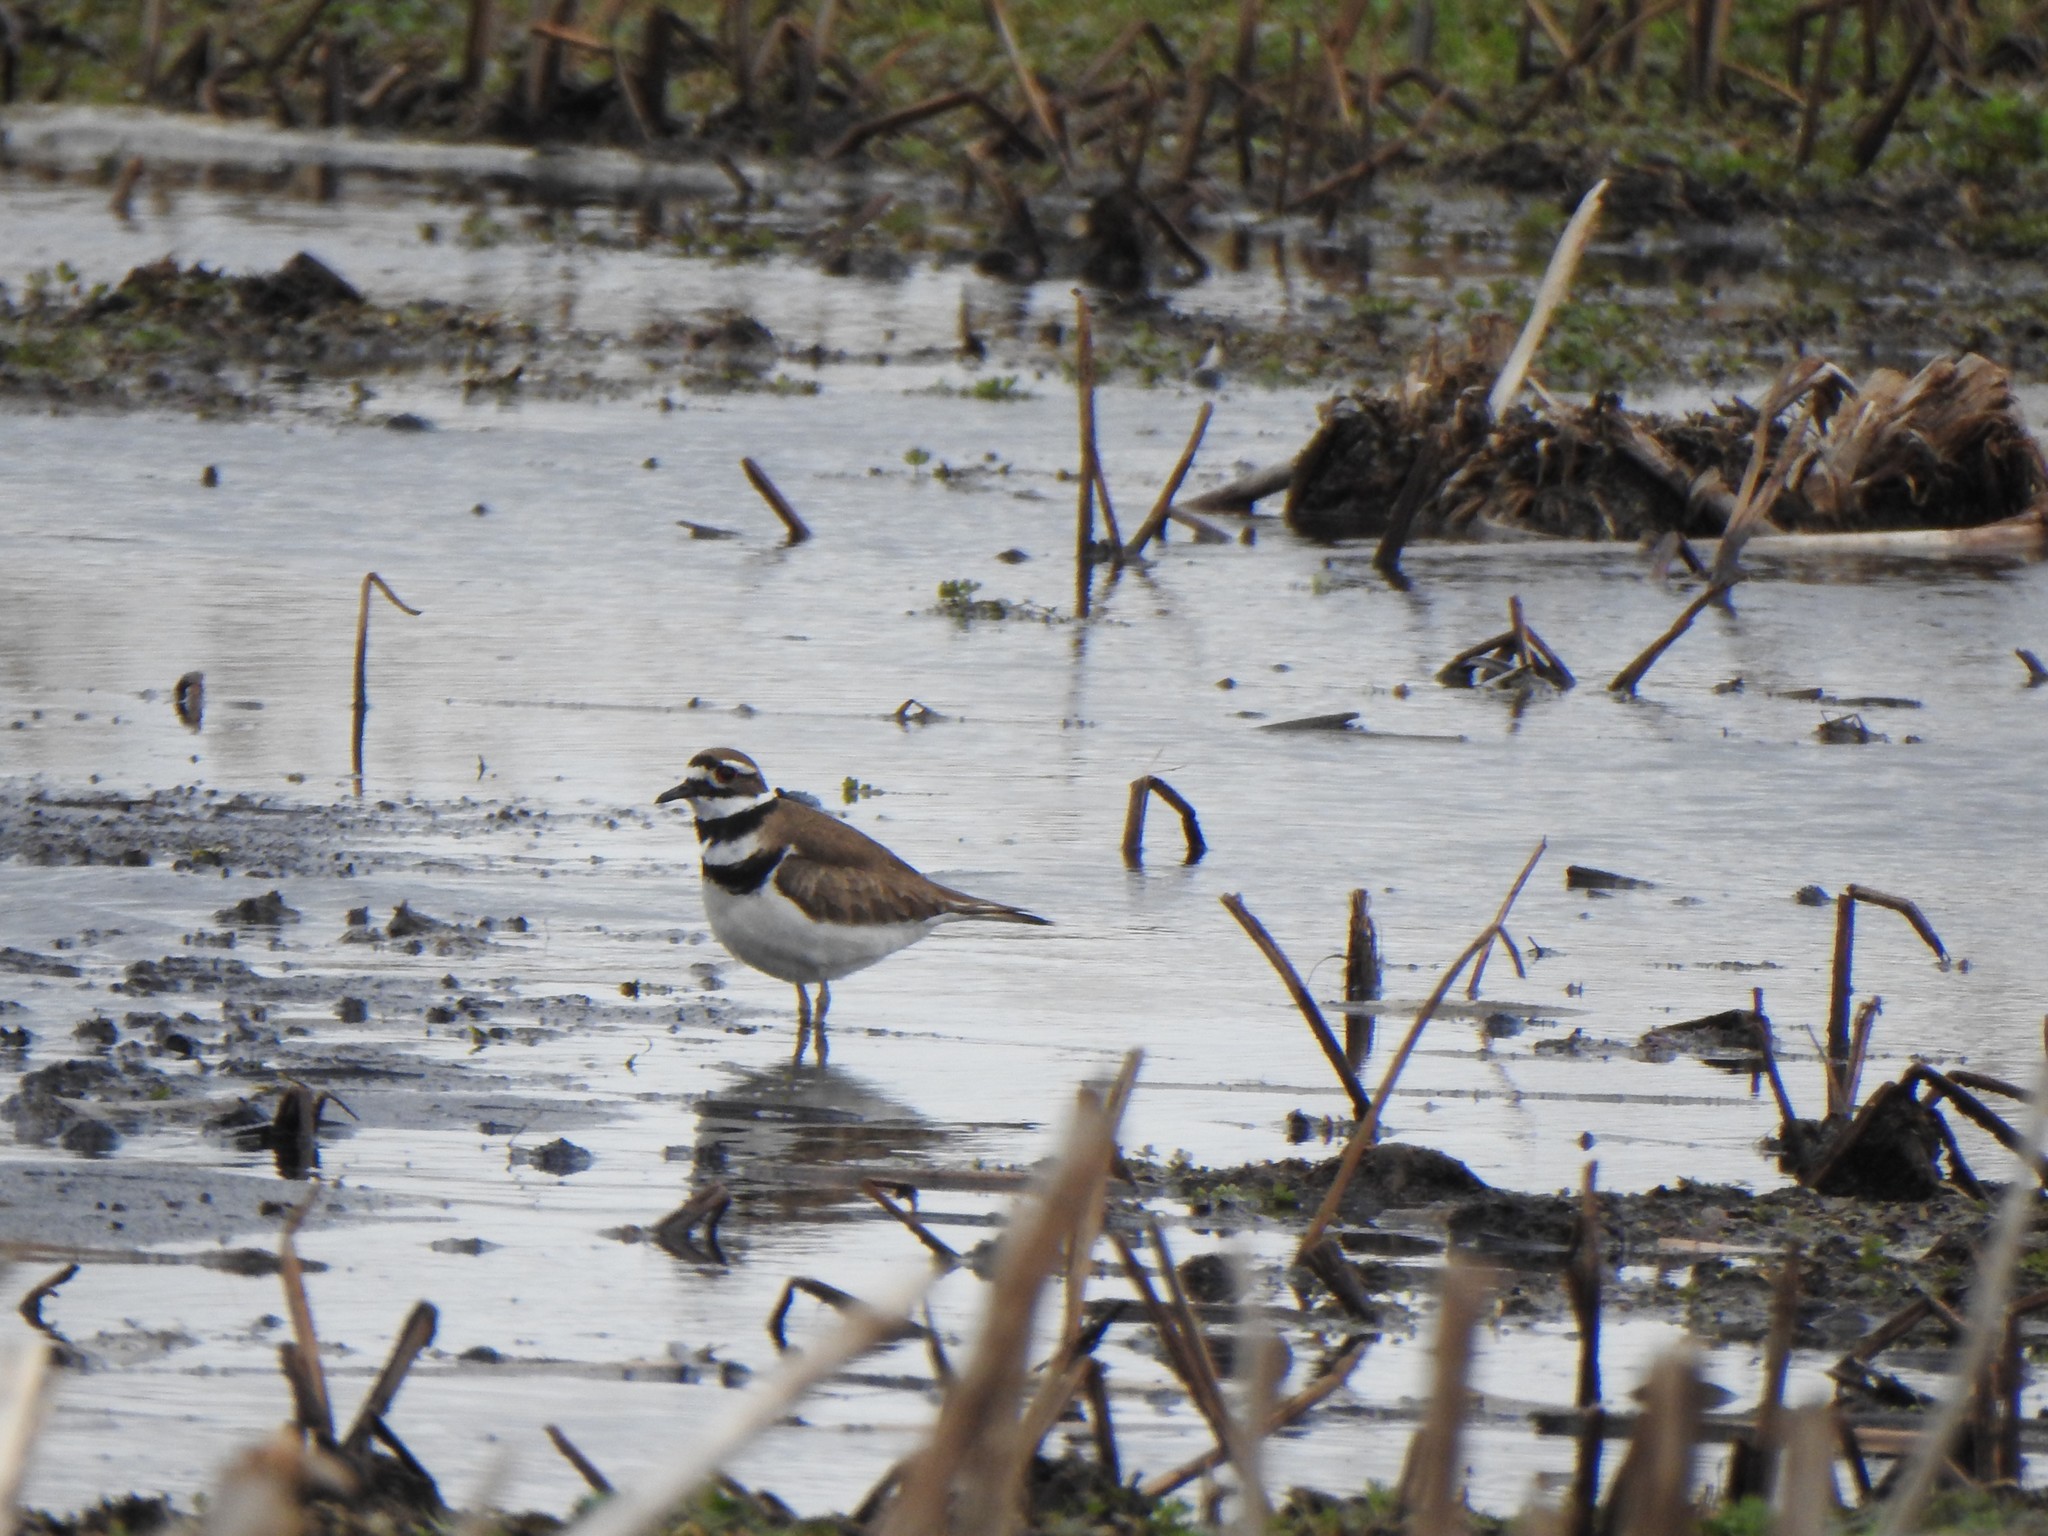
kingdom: Animalia
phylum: Chordata
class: Aves
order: Charadriiformes
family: Charadriidae
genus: Charadrius
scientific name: Charadrius vociferus
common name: Killdeer
